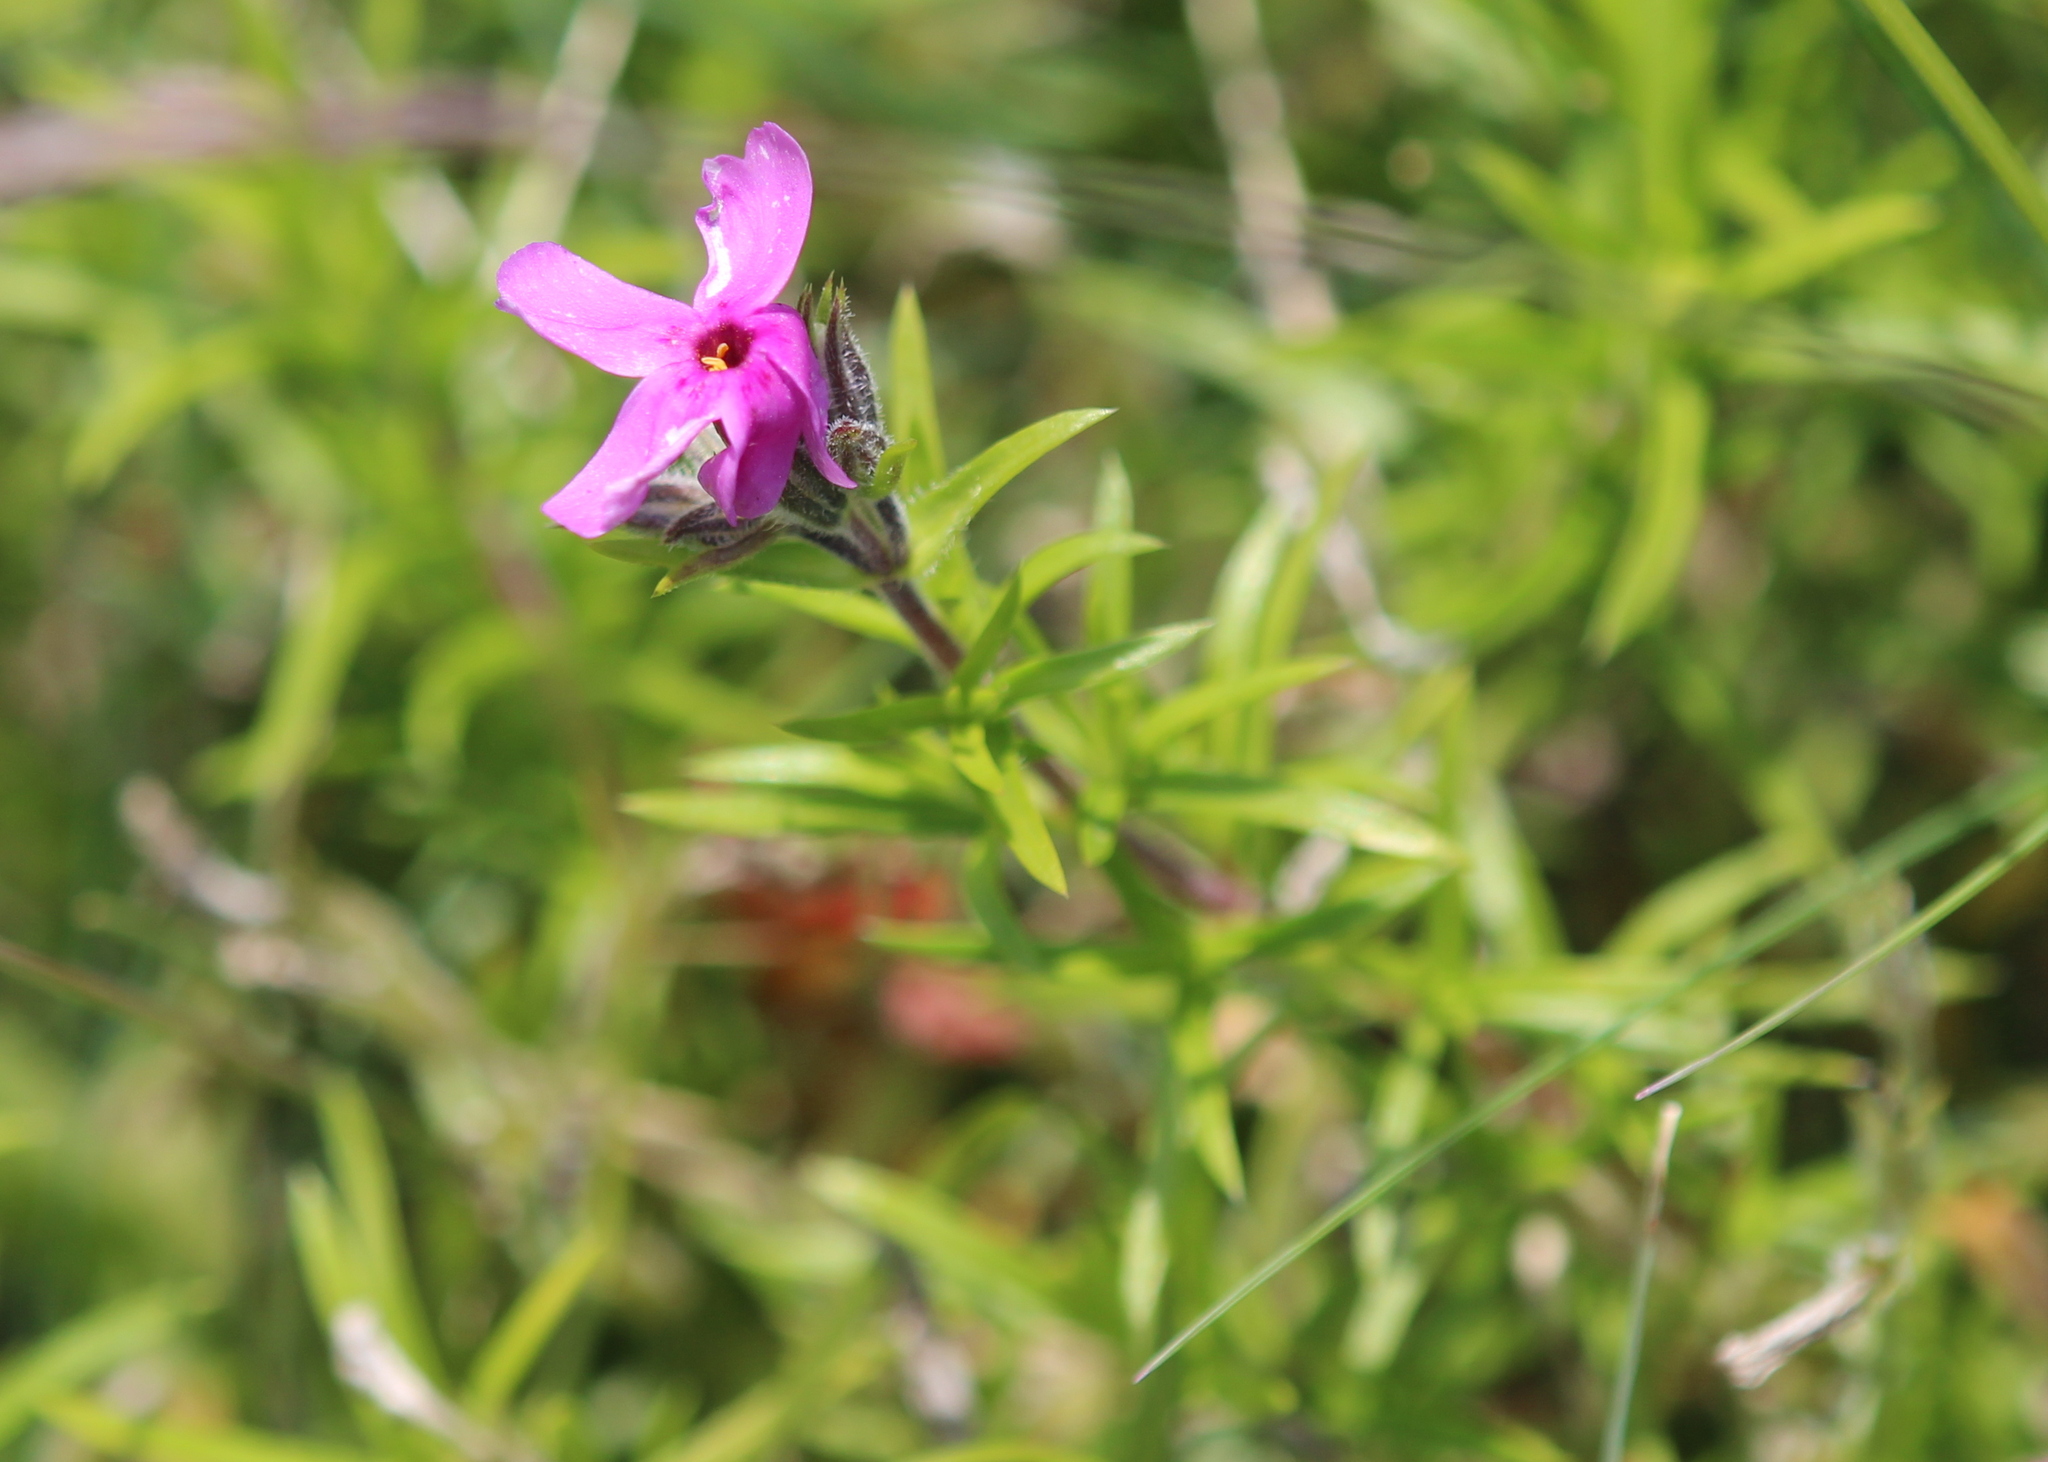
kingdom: Plantae
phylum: Tracheophyta
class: Magnoliopsida
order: Ericales
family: Polemoniaceae
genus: Phlox
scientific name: Phlox subulata
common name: Moss phlox
